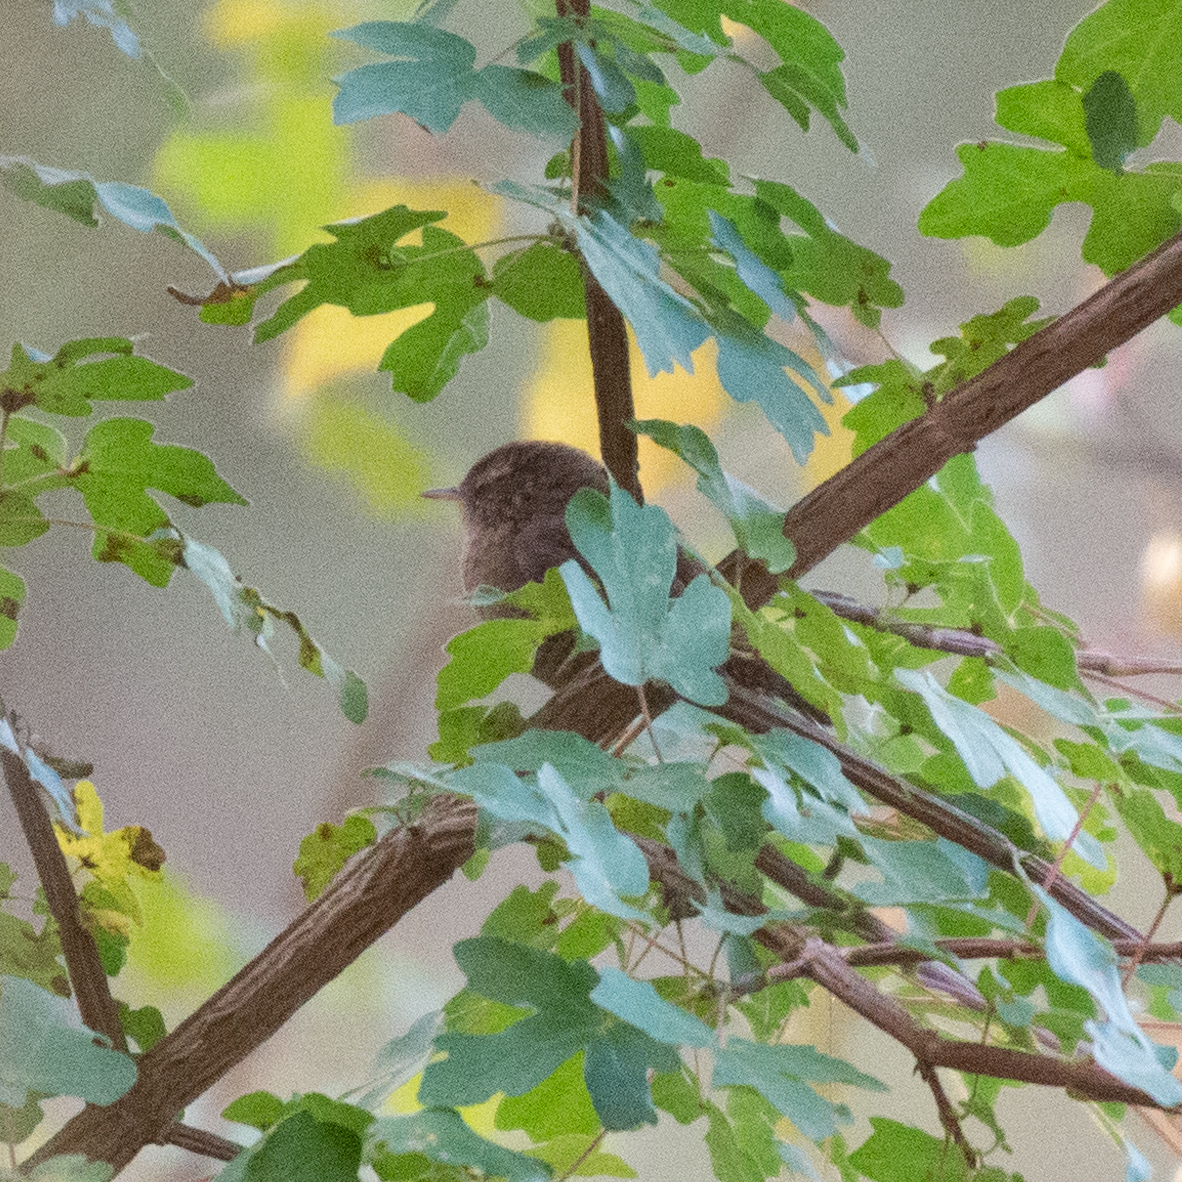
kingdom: Animalia
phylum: Chordata
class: Aves
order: Passeriformes
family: Troglodytidae
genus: Troglodytes
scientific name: Troglodytes troglodytes
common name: Eurasian wren
